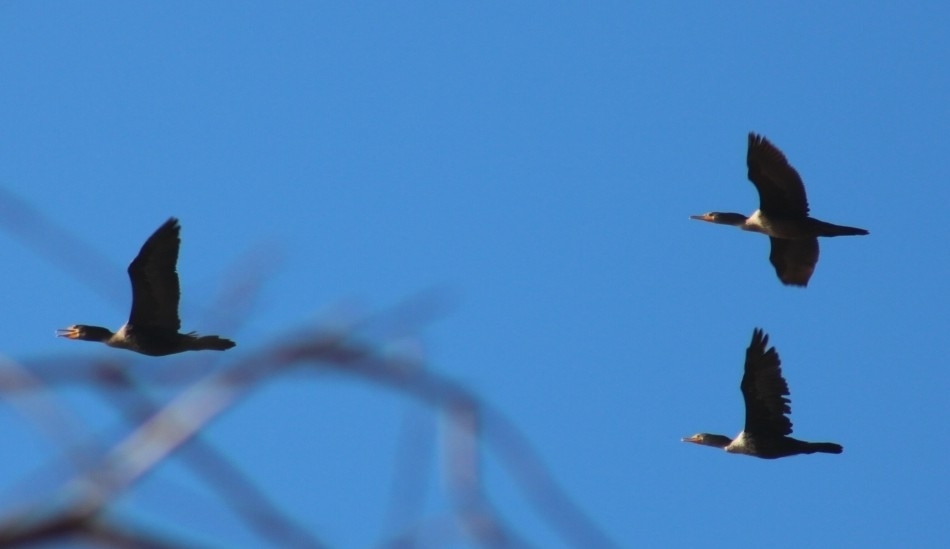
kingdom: Animalia
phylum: Chordata
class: Aves
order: Suliformes
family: Phalacrocoracidae
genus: Phalacrocorax
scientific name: Phalacrocorax auritus
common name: Double-crested cormorant
